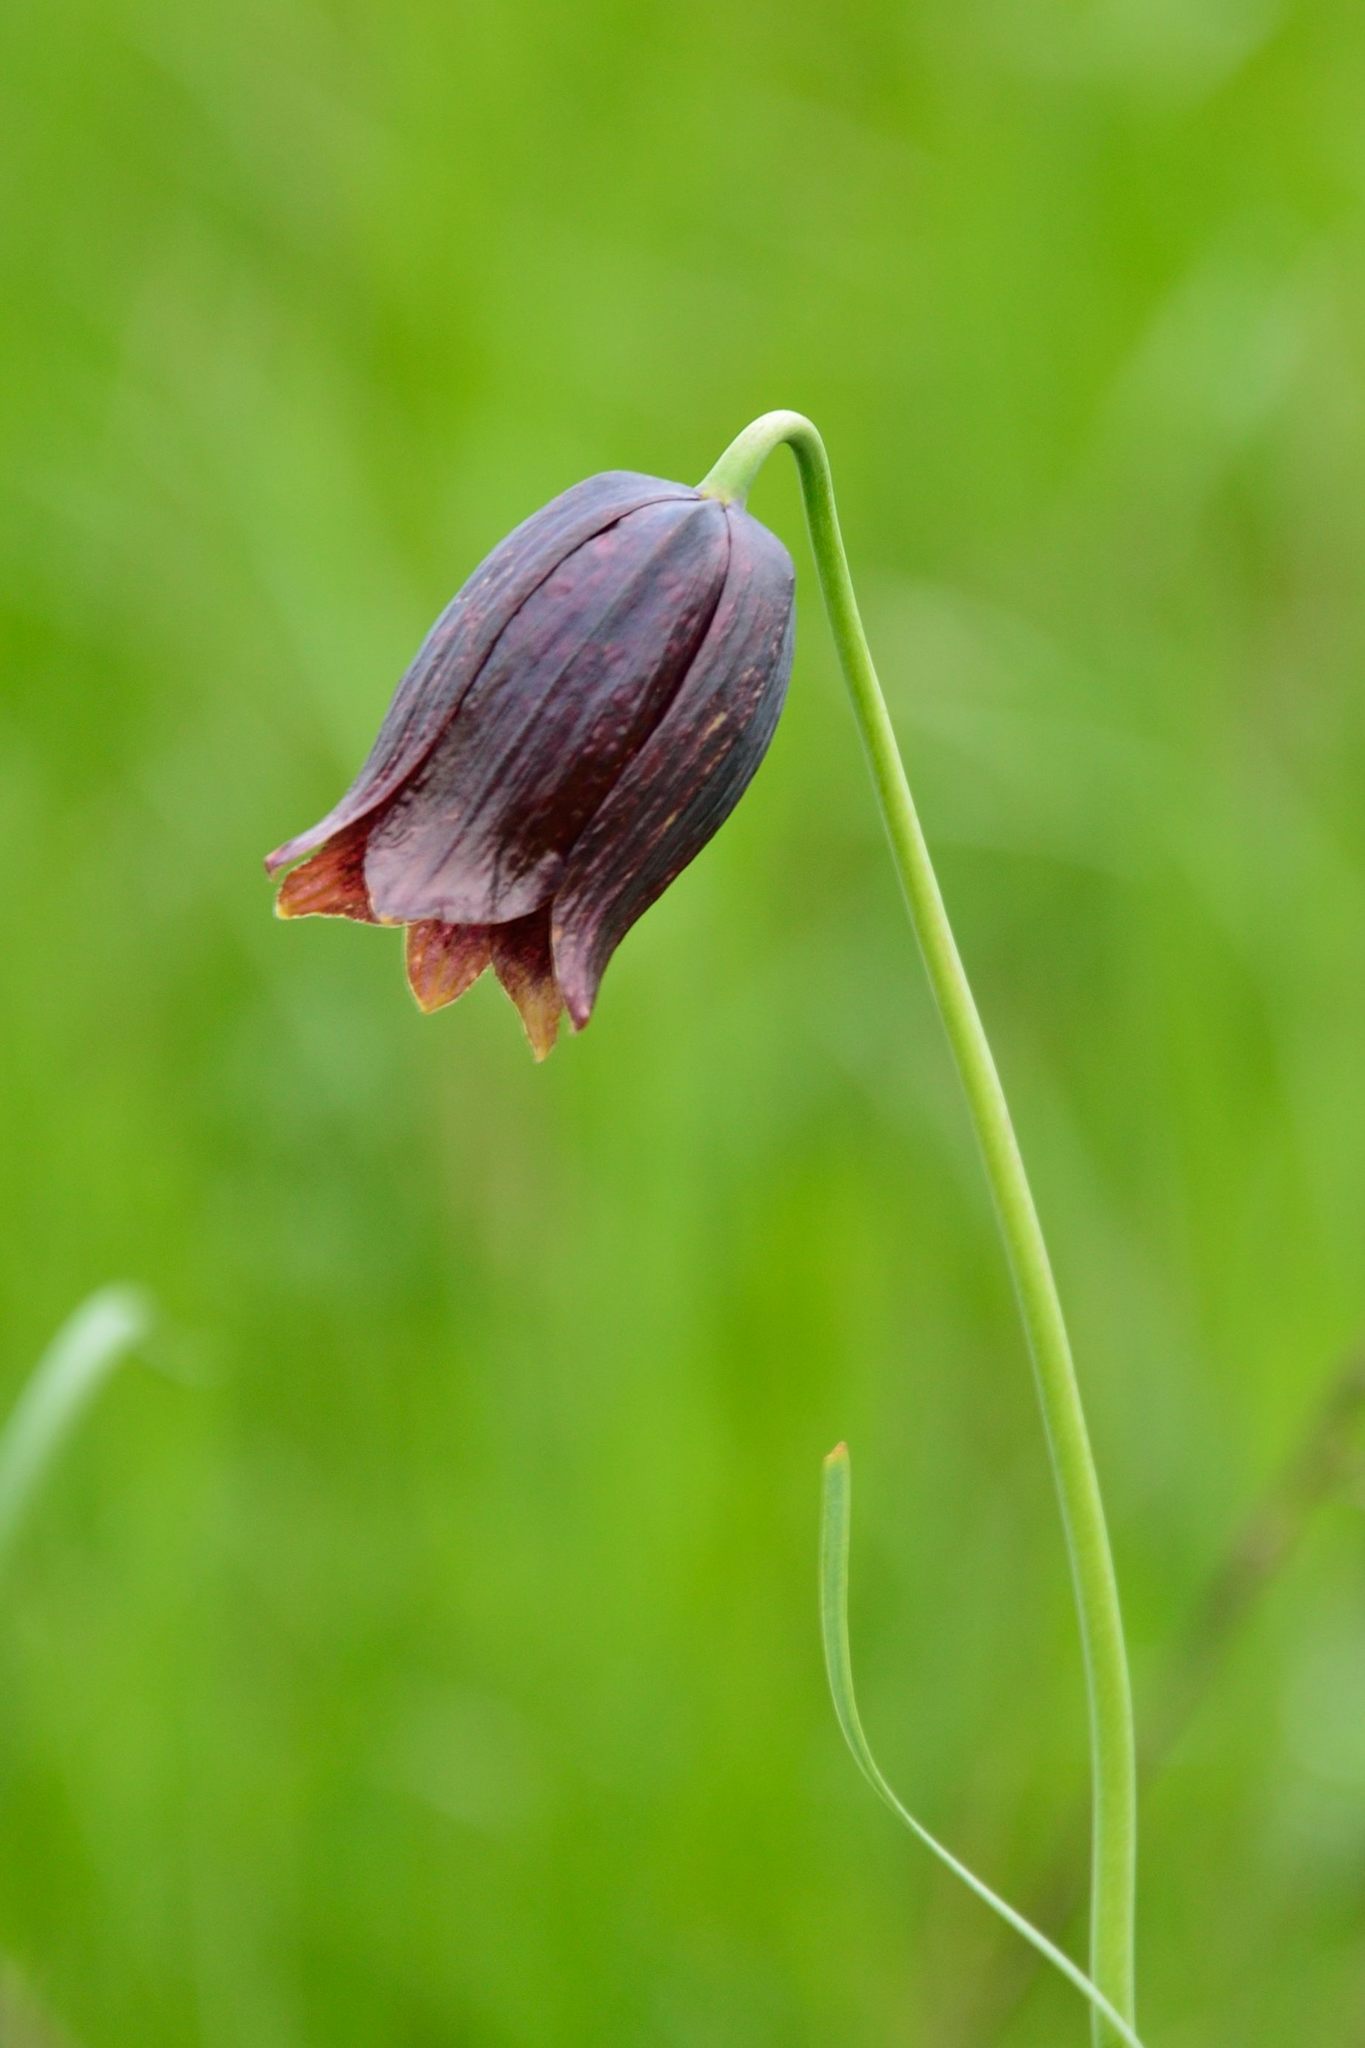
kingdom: Plantae
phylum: Tracheophyta
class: Liliopsida
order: Liliales
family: Liliaceae
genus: Fritillaria
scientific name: Fritillaria meleagroides
